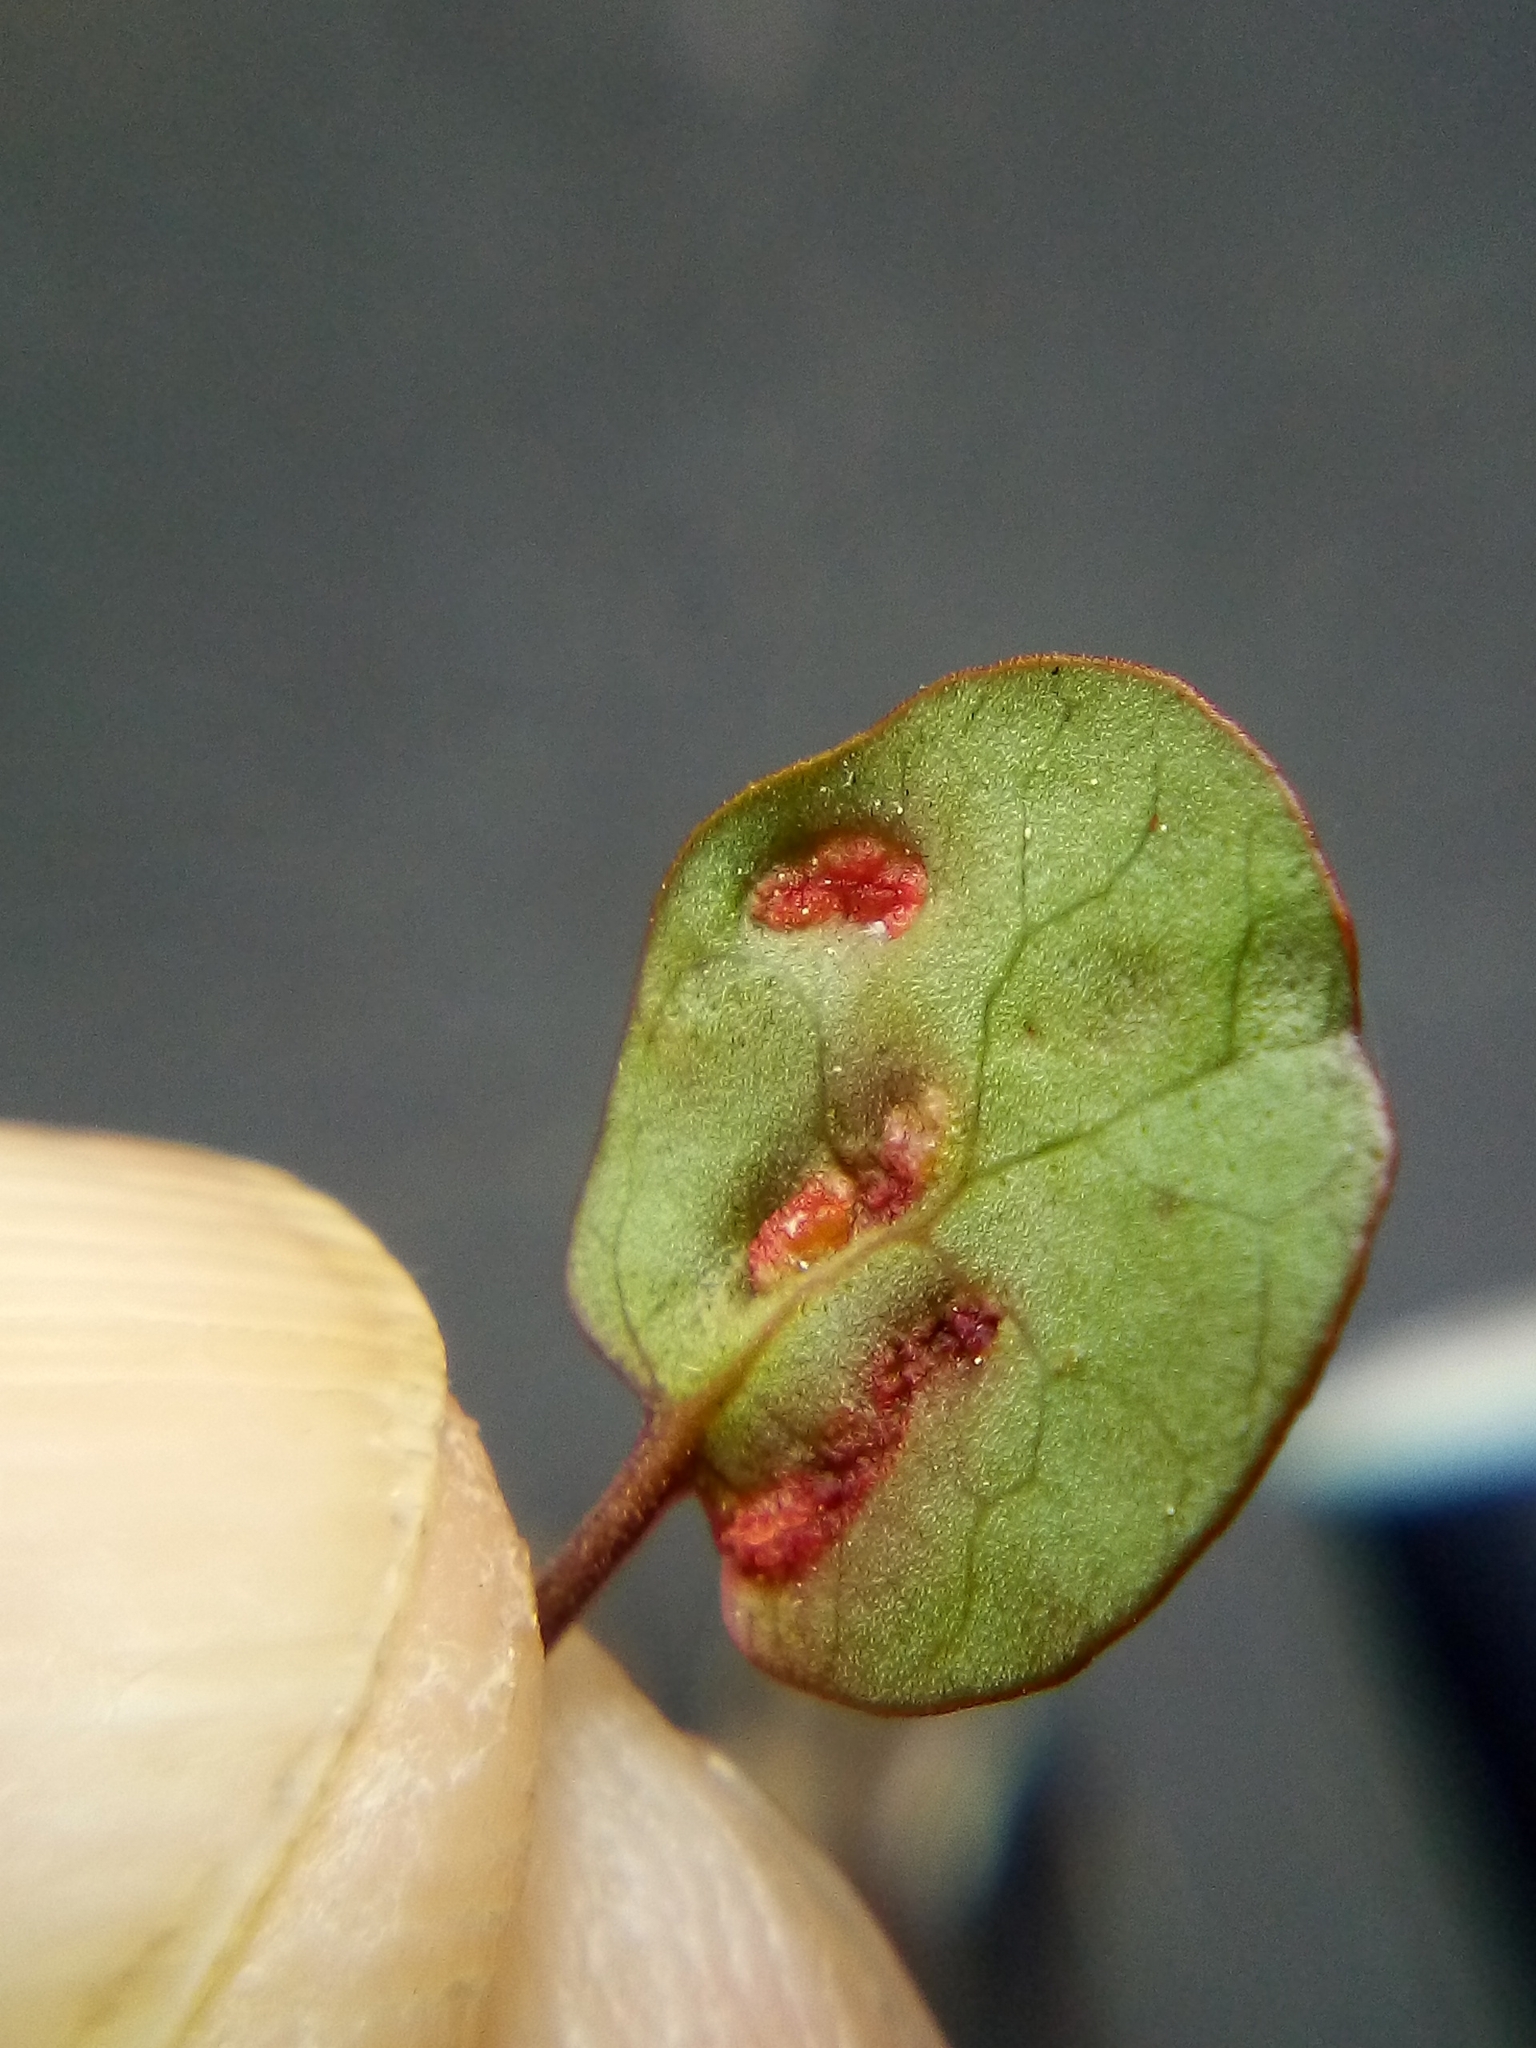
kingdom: Animalia
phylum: Arthropoda
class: Arachnida
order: Trombidiformes
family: Eriophyidae
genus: Aceria
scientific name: Aceria lamii
